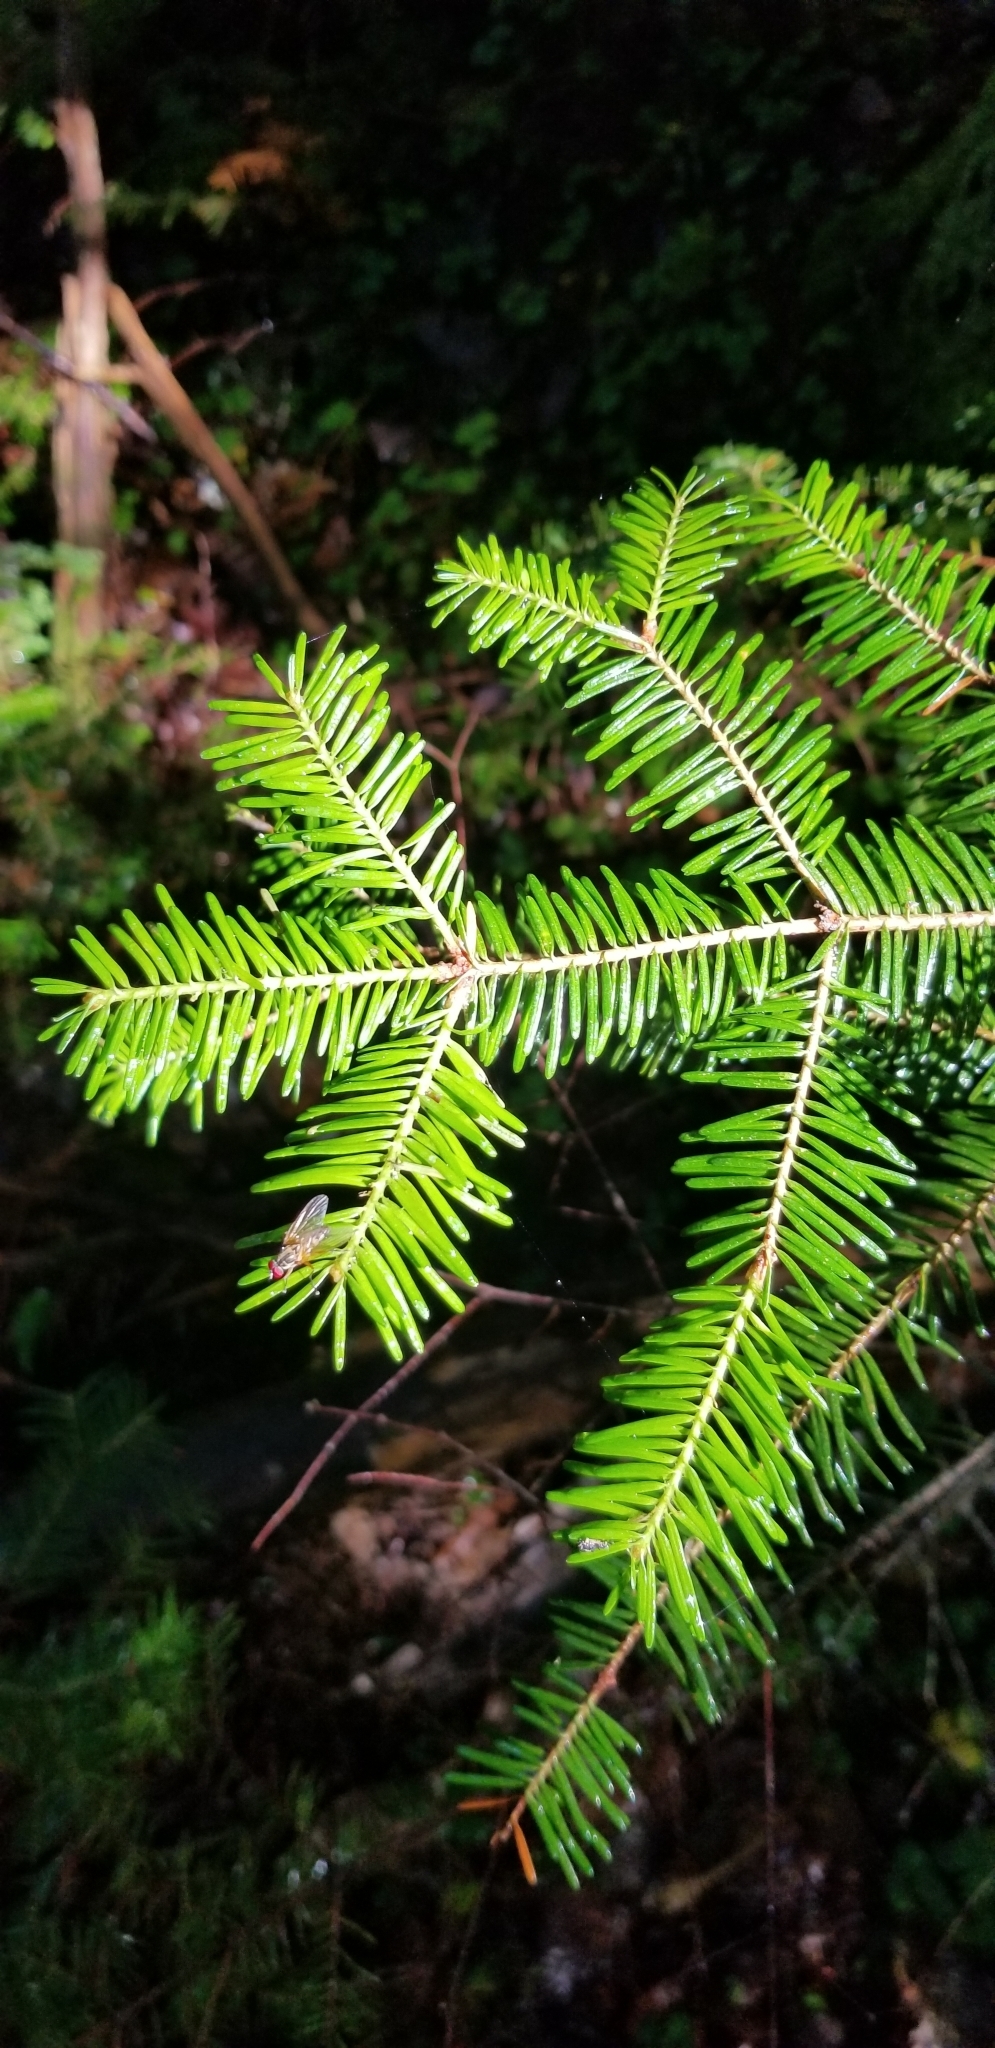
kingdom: Plantae
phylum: Tracheophyta
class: Pinopsida
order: Pinales
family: Pinaceae
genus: Abies
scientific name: Abies balsamea
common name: Balsam fir
